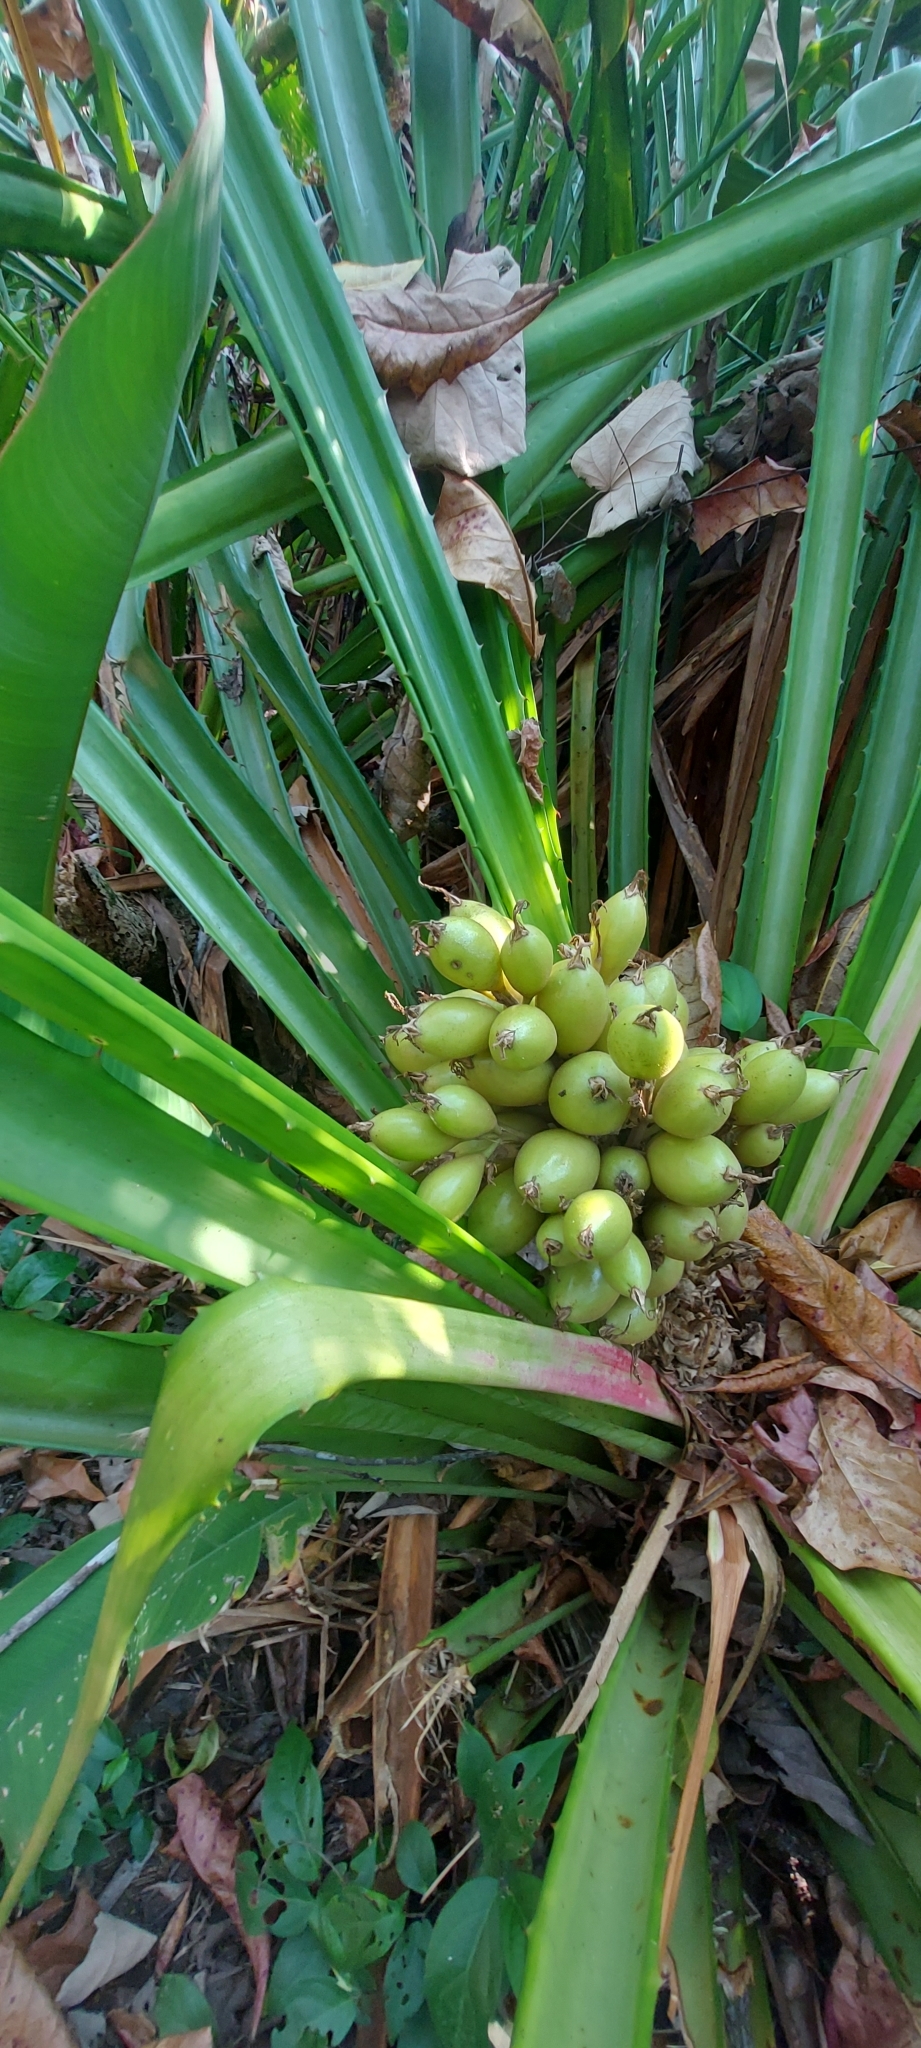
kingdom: Plantae
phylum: Tracheophyta
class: Liliopsida
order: Poales
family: Bromeliaceae
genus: Bromelia
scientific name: Bromelia pinguin
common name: Pinguin
